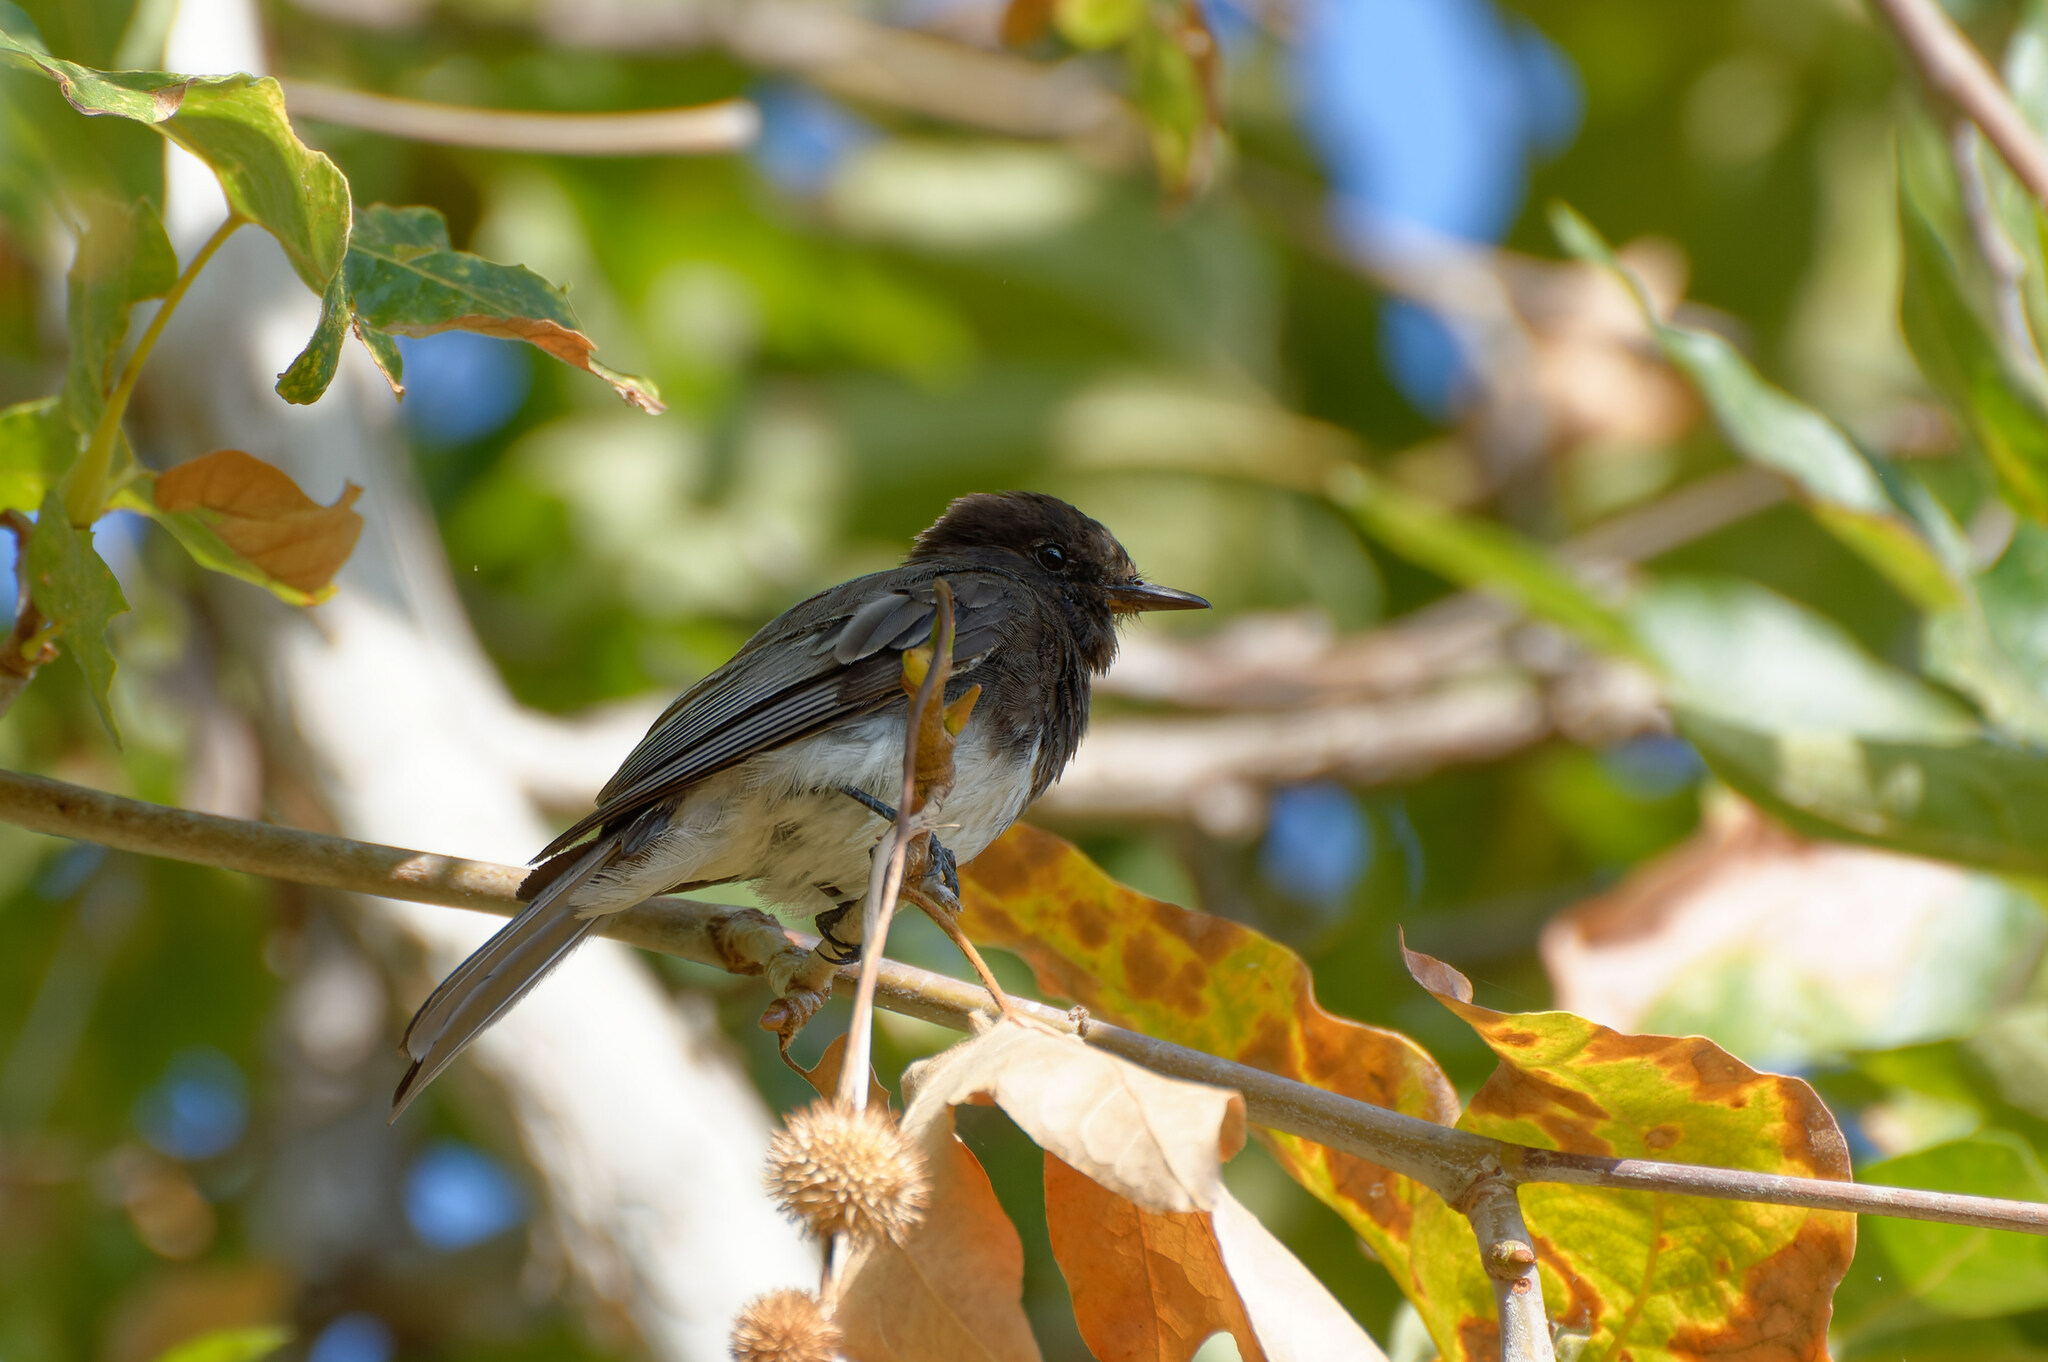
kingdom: Animalia
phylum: Chordata
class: Aves
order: Passeriformes
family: Tyrannidae
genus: Sayornis
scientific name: Sayornis nigricans
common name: Black phoebe
